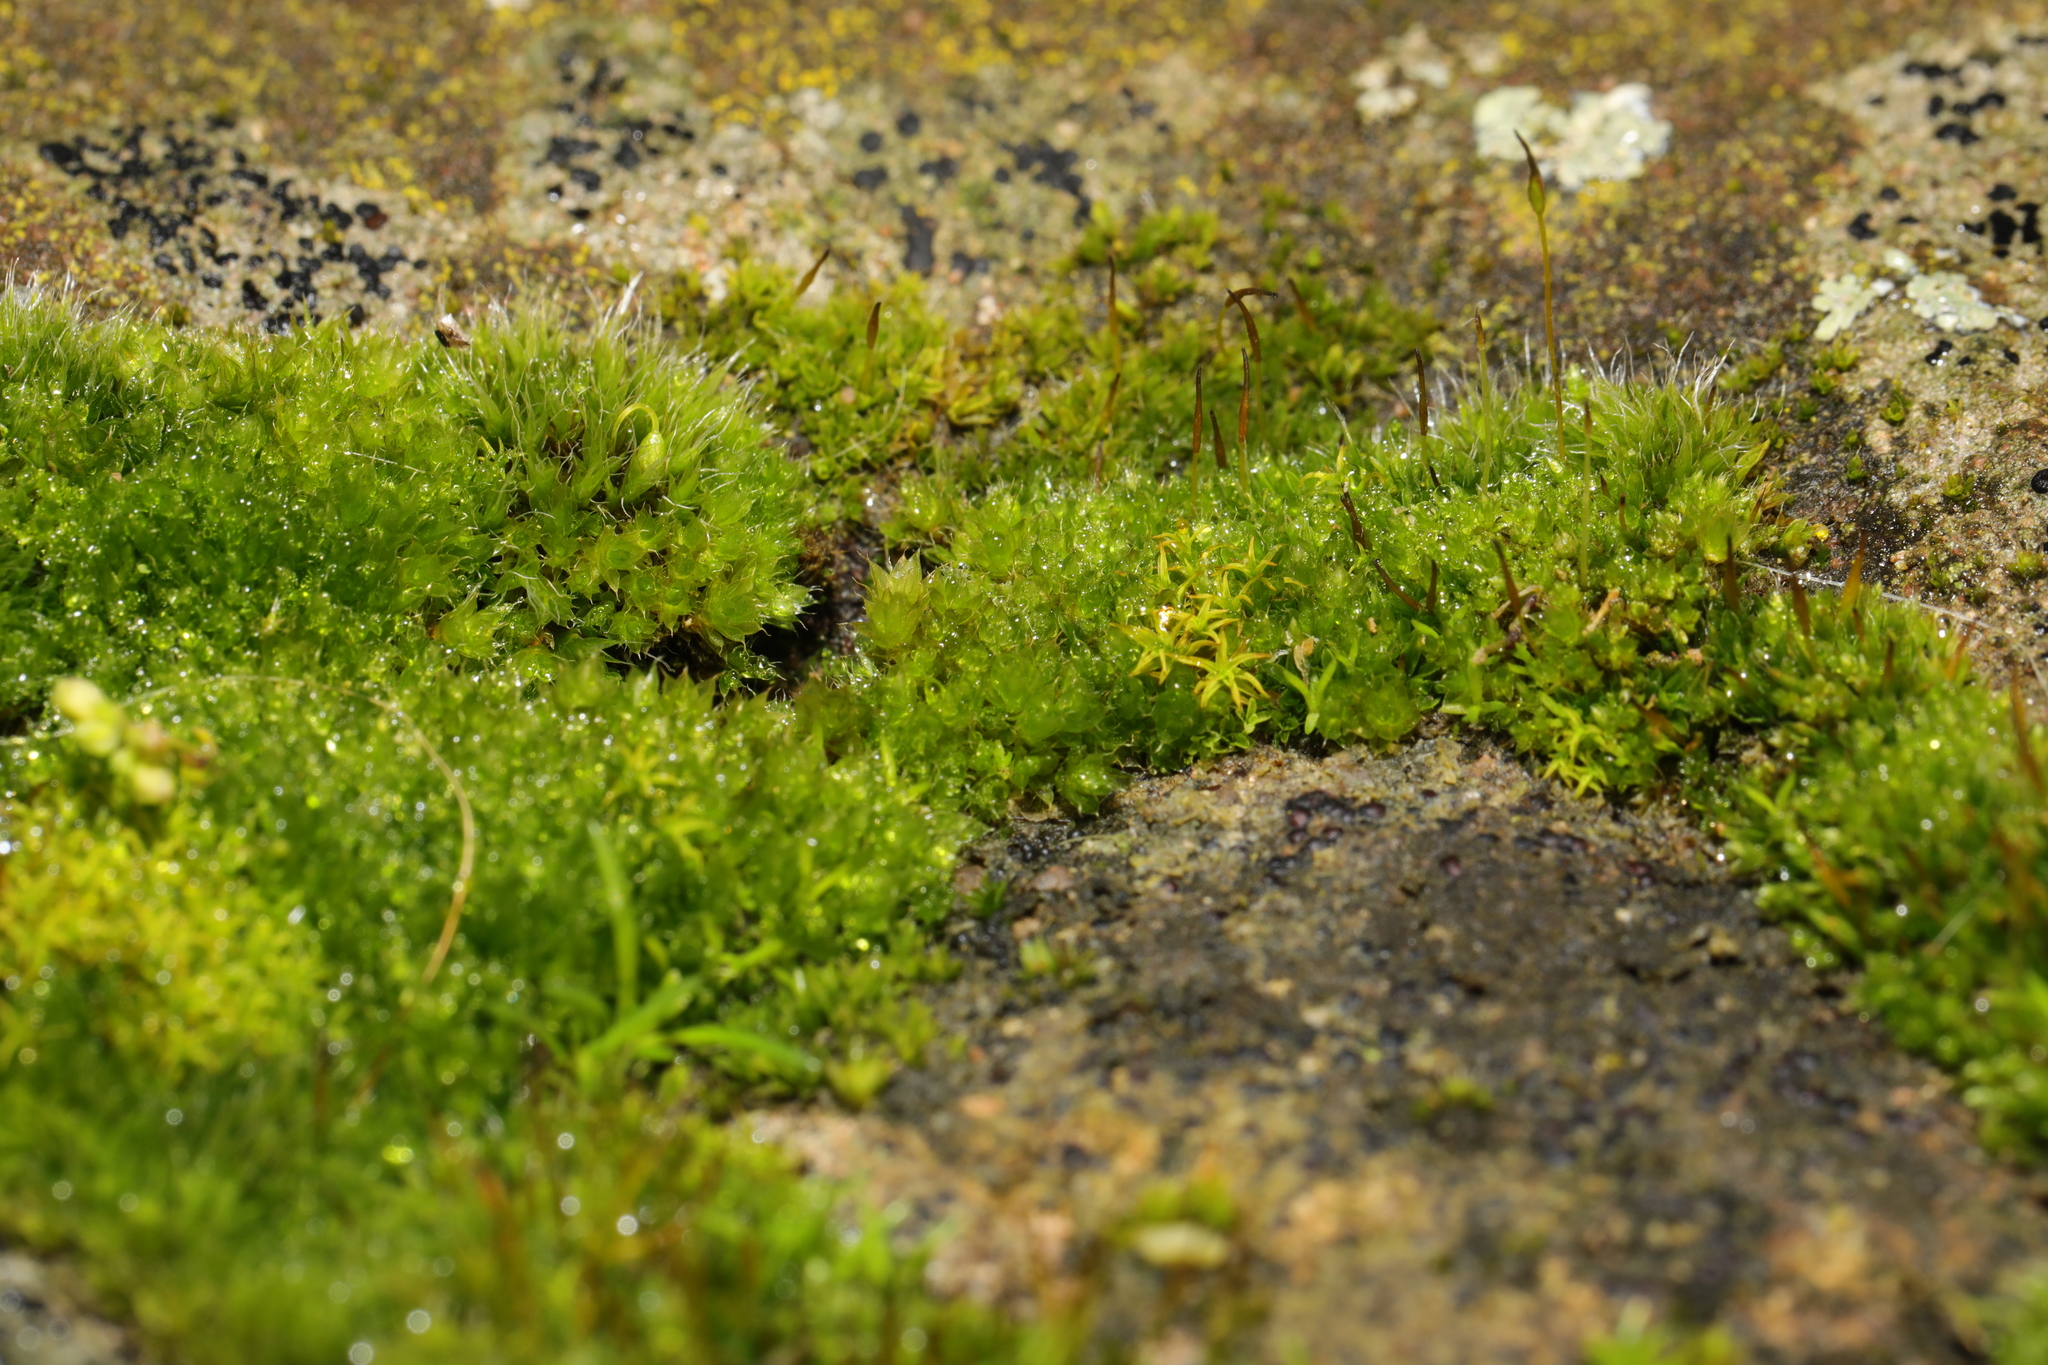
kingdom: Plantae
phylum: Bryophyta
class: Bryopsida
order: Grimmiales
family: Grimmiaceae
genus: Grimmia
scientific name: Grimmia pulvinata
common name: Grey-cushioned grimmia
